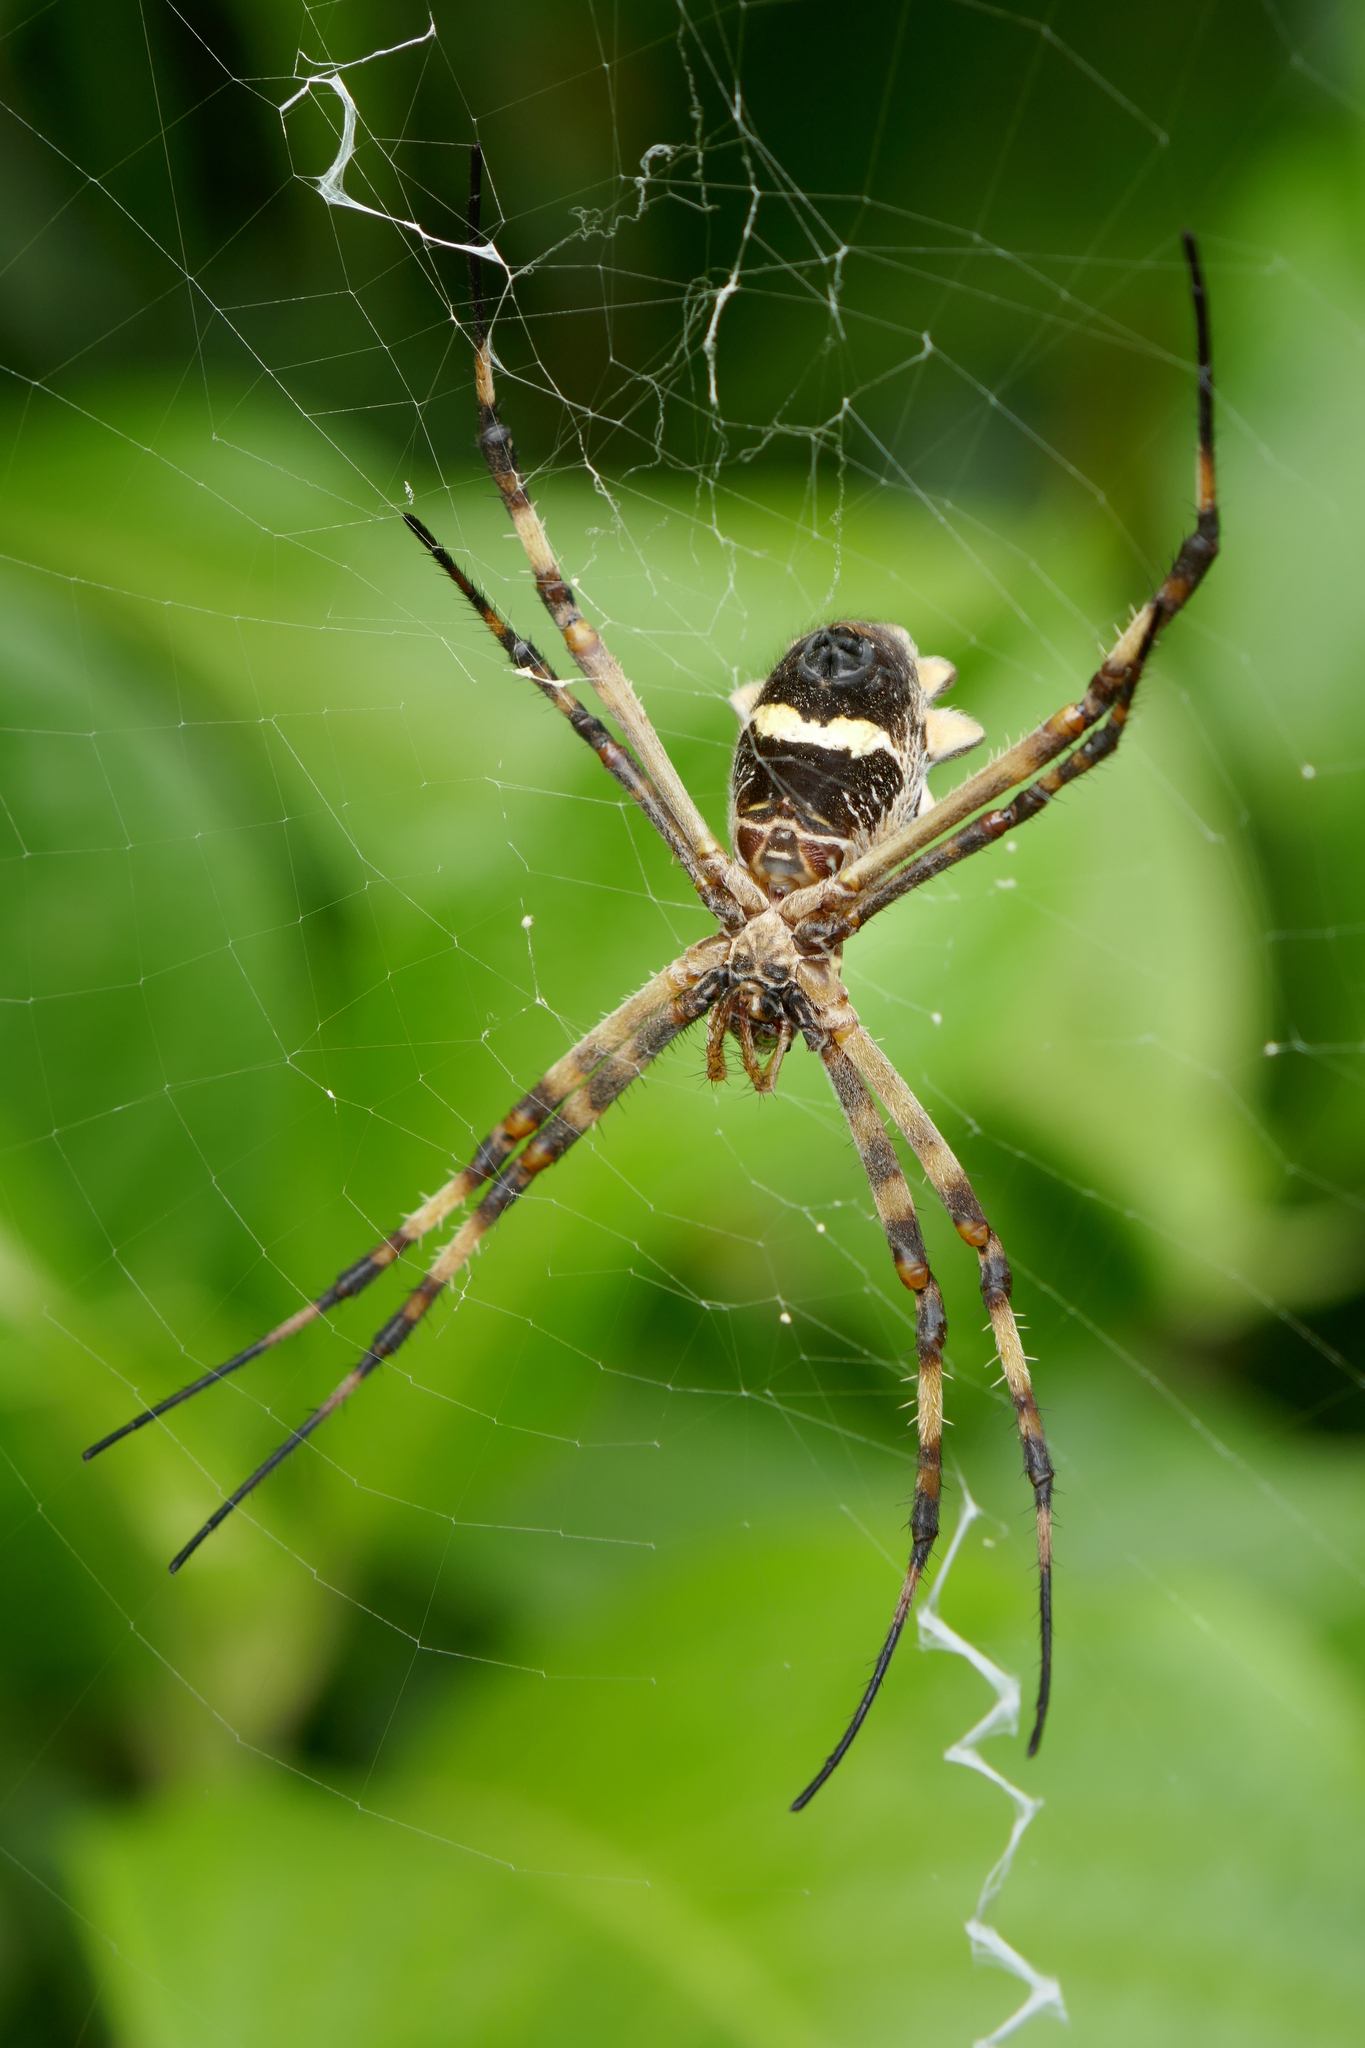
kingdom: Animalia
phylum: Arthropoda
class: Arachnida
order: Araneae
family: Araneidae
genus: Argiope
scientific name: Argiope argentata
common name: Orb weavers
